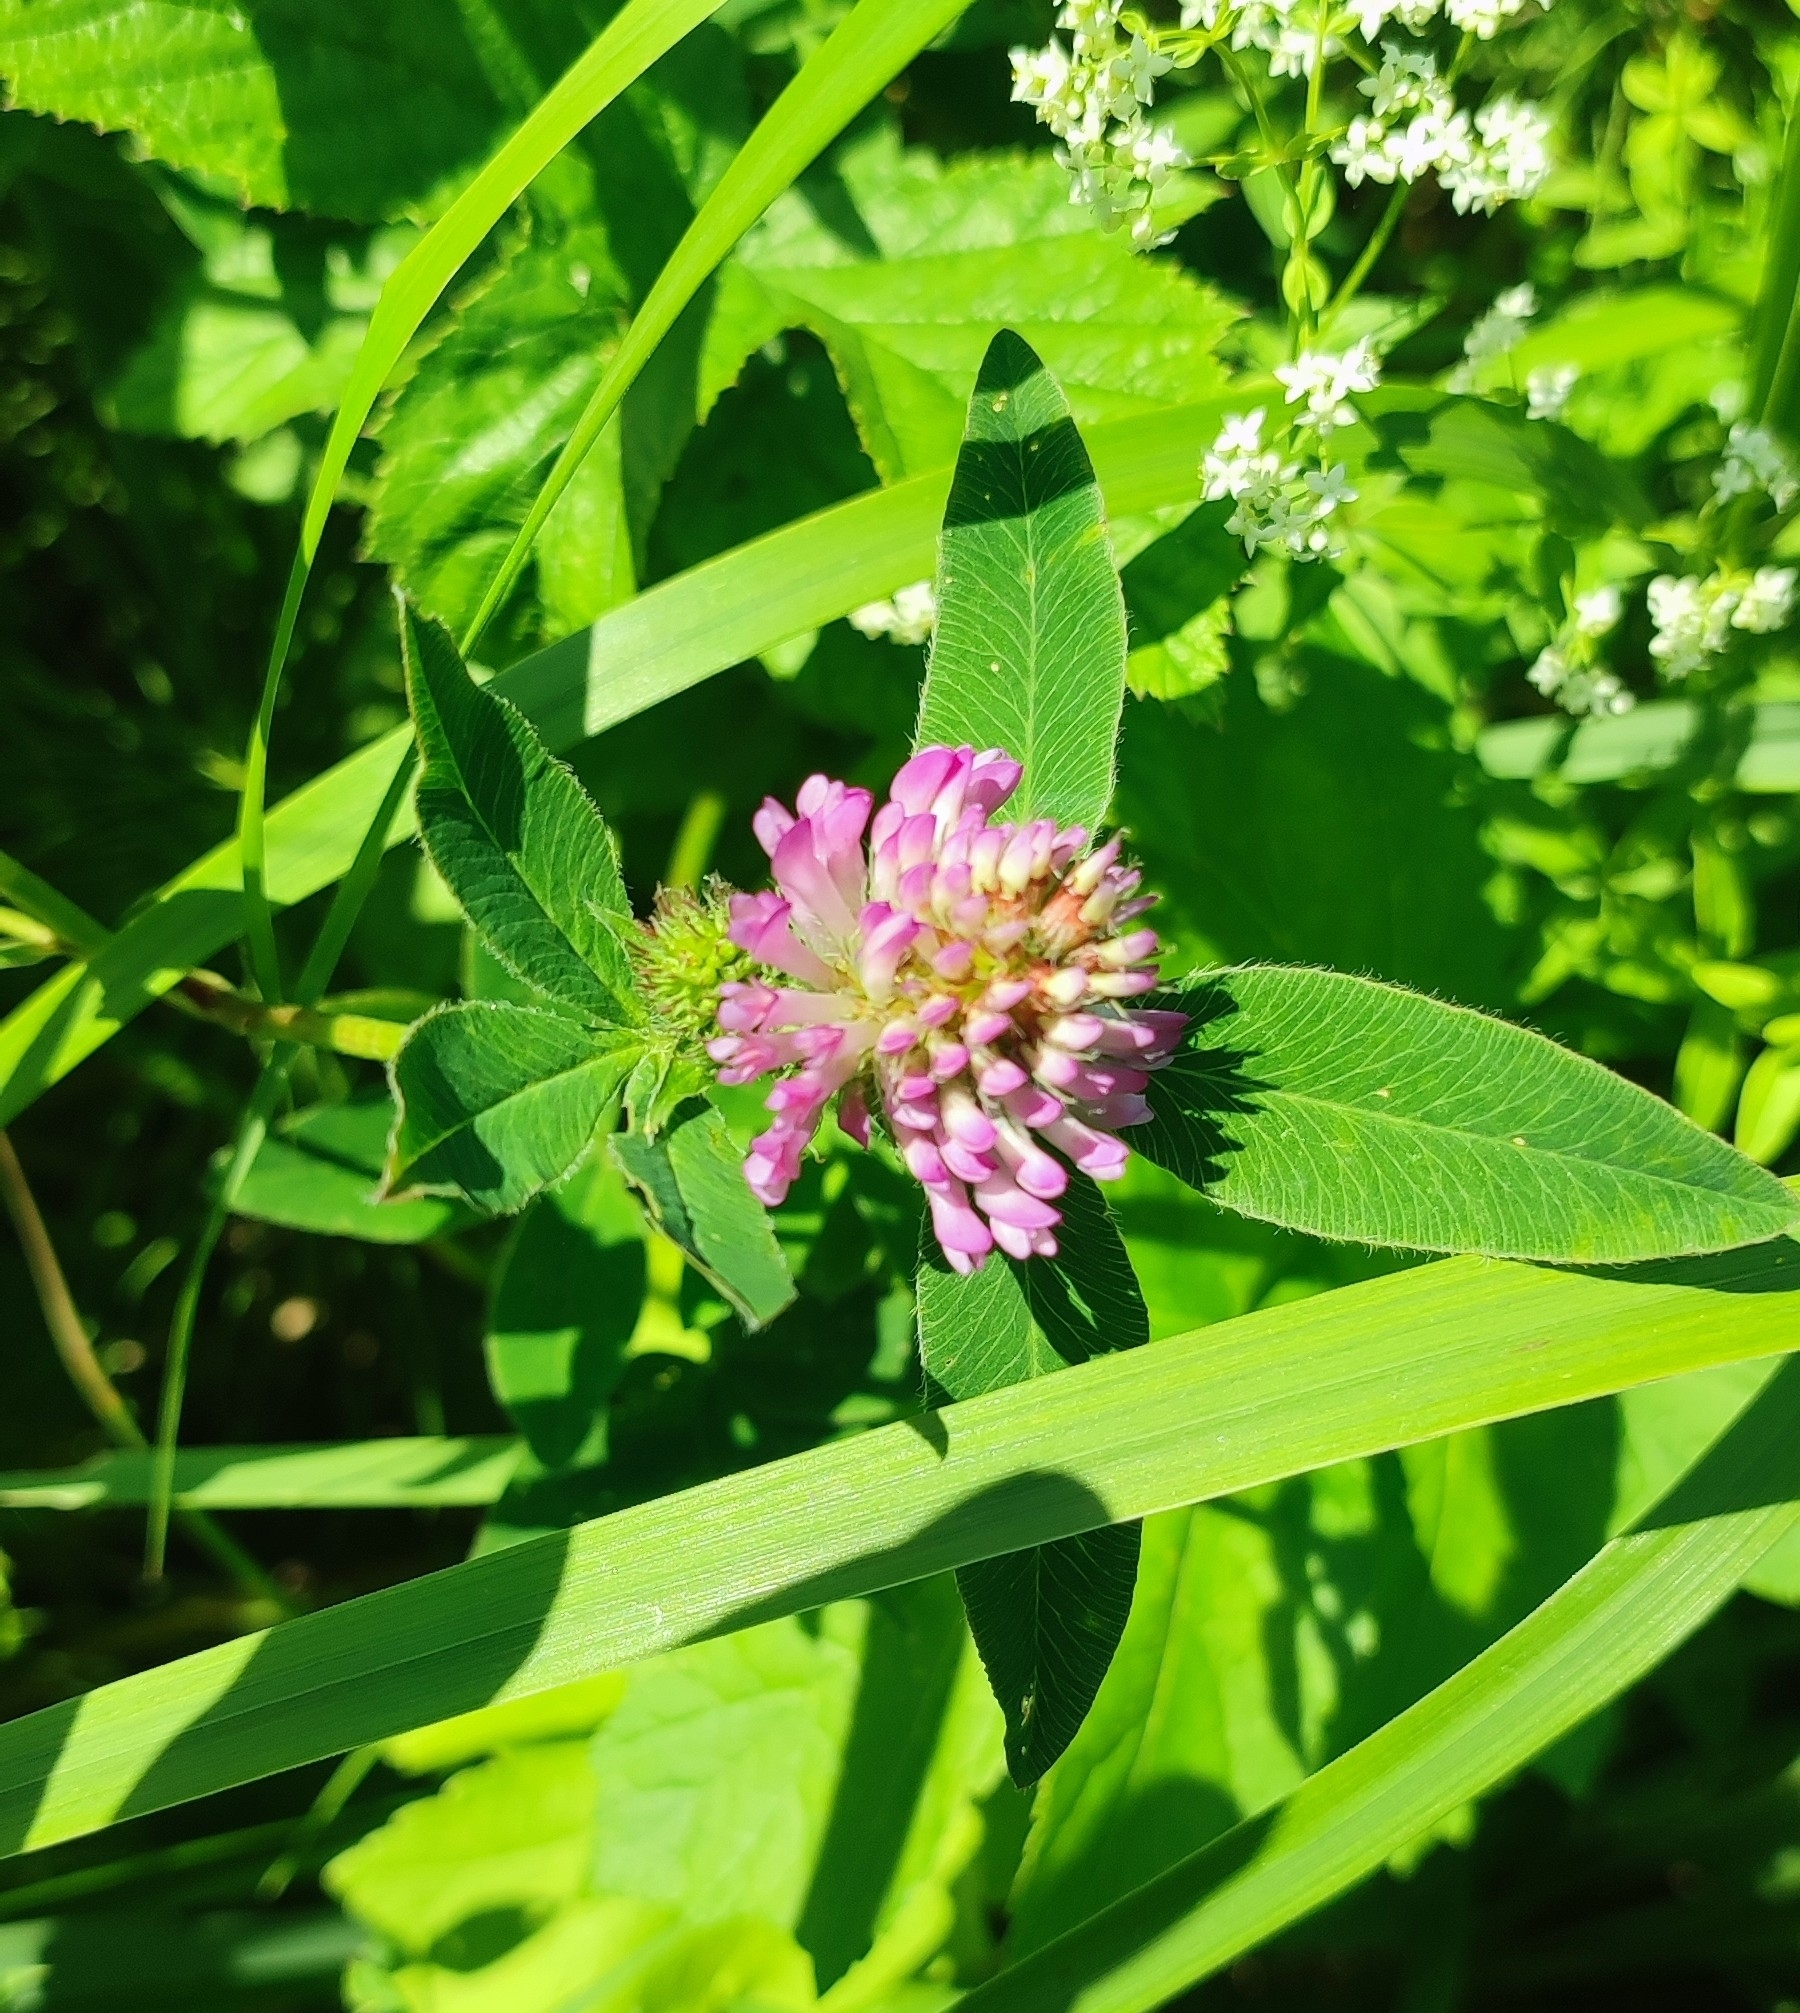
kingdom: Plantae
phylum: Tracheophyta
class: Magnoliopsida
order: Fabales
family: Fabaceae
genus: Trifolium
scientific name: Trifolium medium
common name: Zigzag clover
